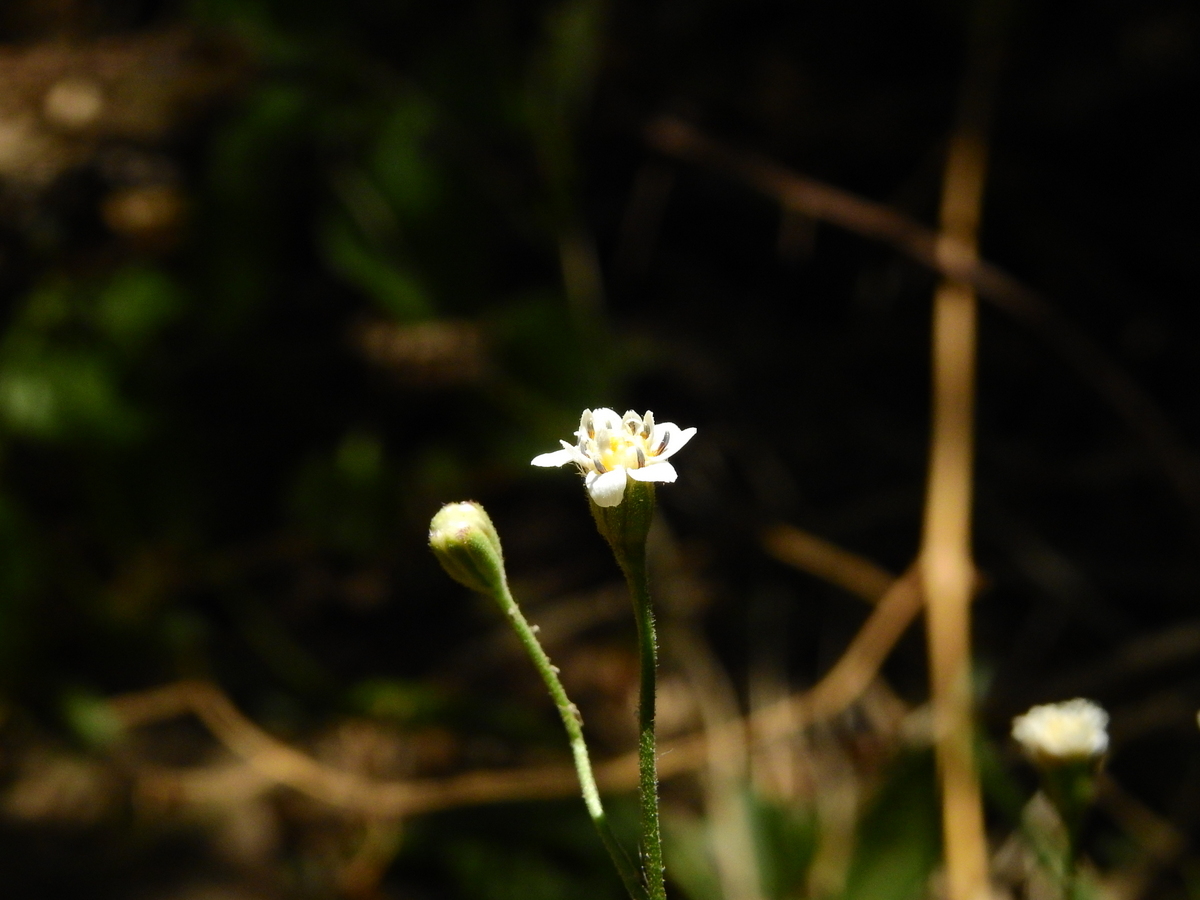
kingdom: Plantae
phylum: Tracheophyta
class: Magnoliopsida
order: Asterales
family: Asteraceae
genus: Holocheilus
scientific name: Holocheilus hieracioides
